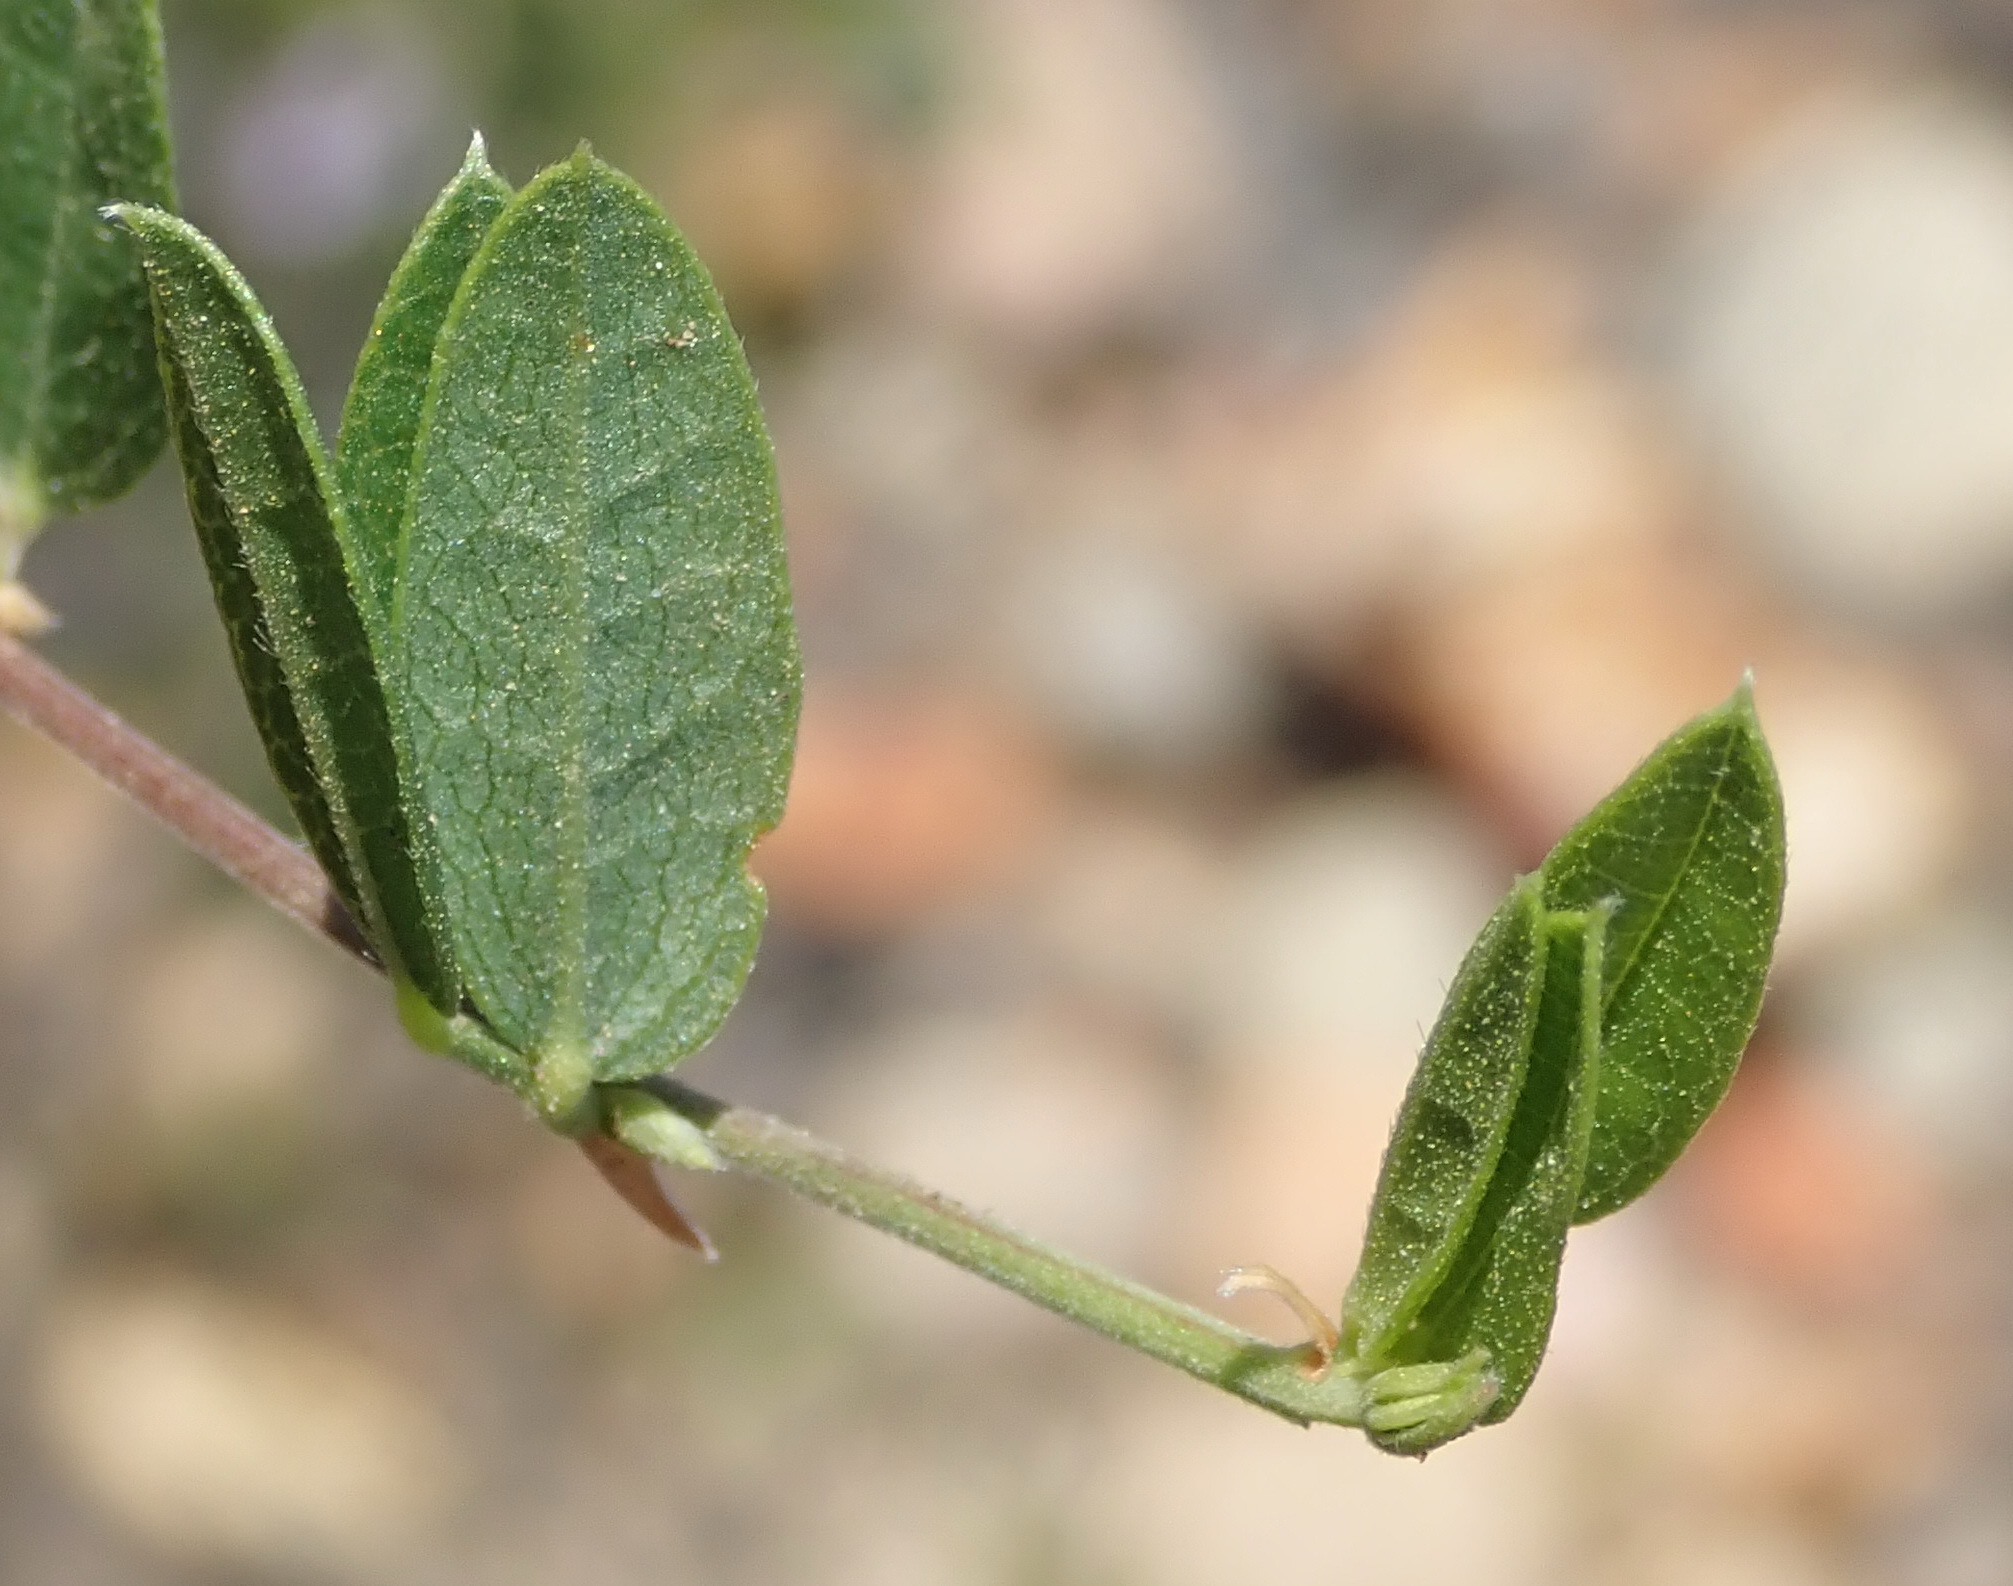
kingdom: Plantae
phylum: Tracheophyta
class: Magnoliopsida
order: Fabales
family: Fabaceae
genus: Rhynchosia
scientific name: Rhynchosia ciliata
